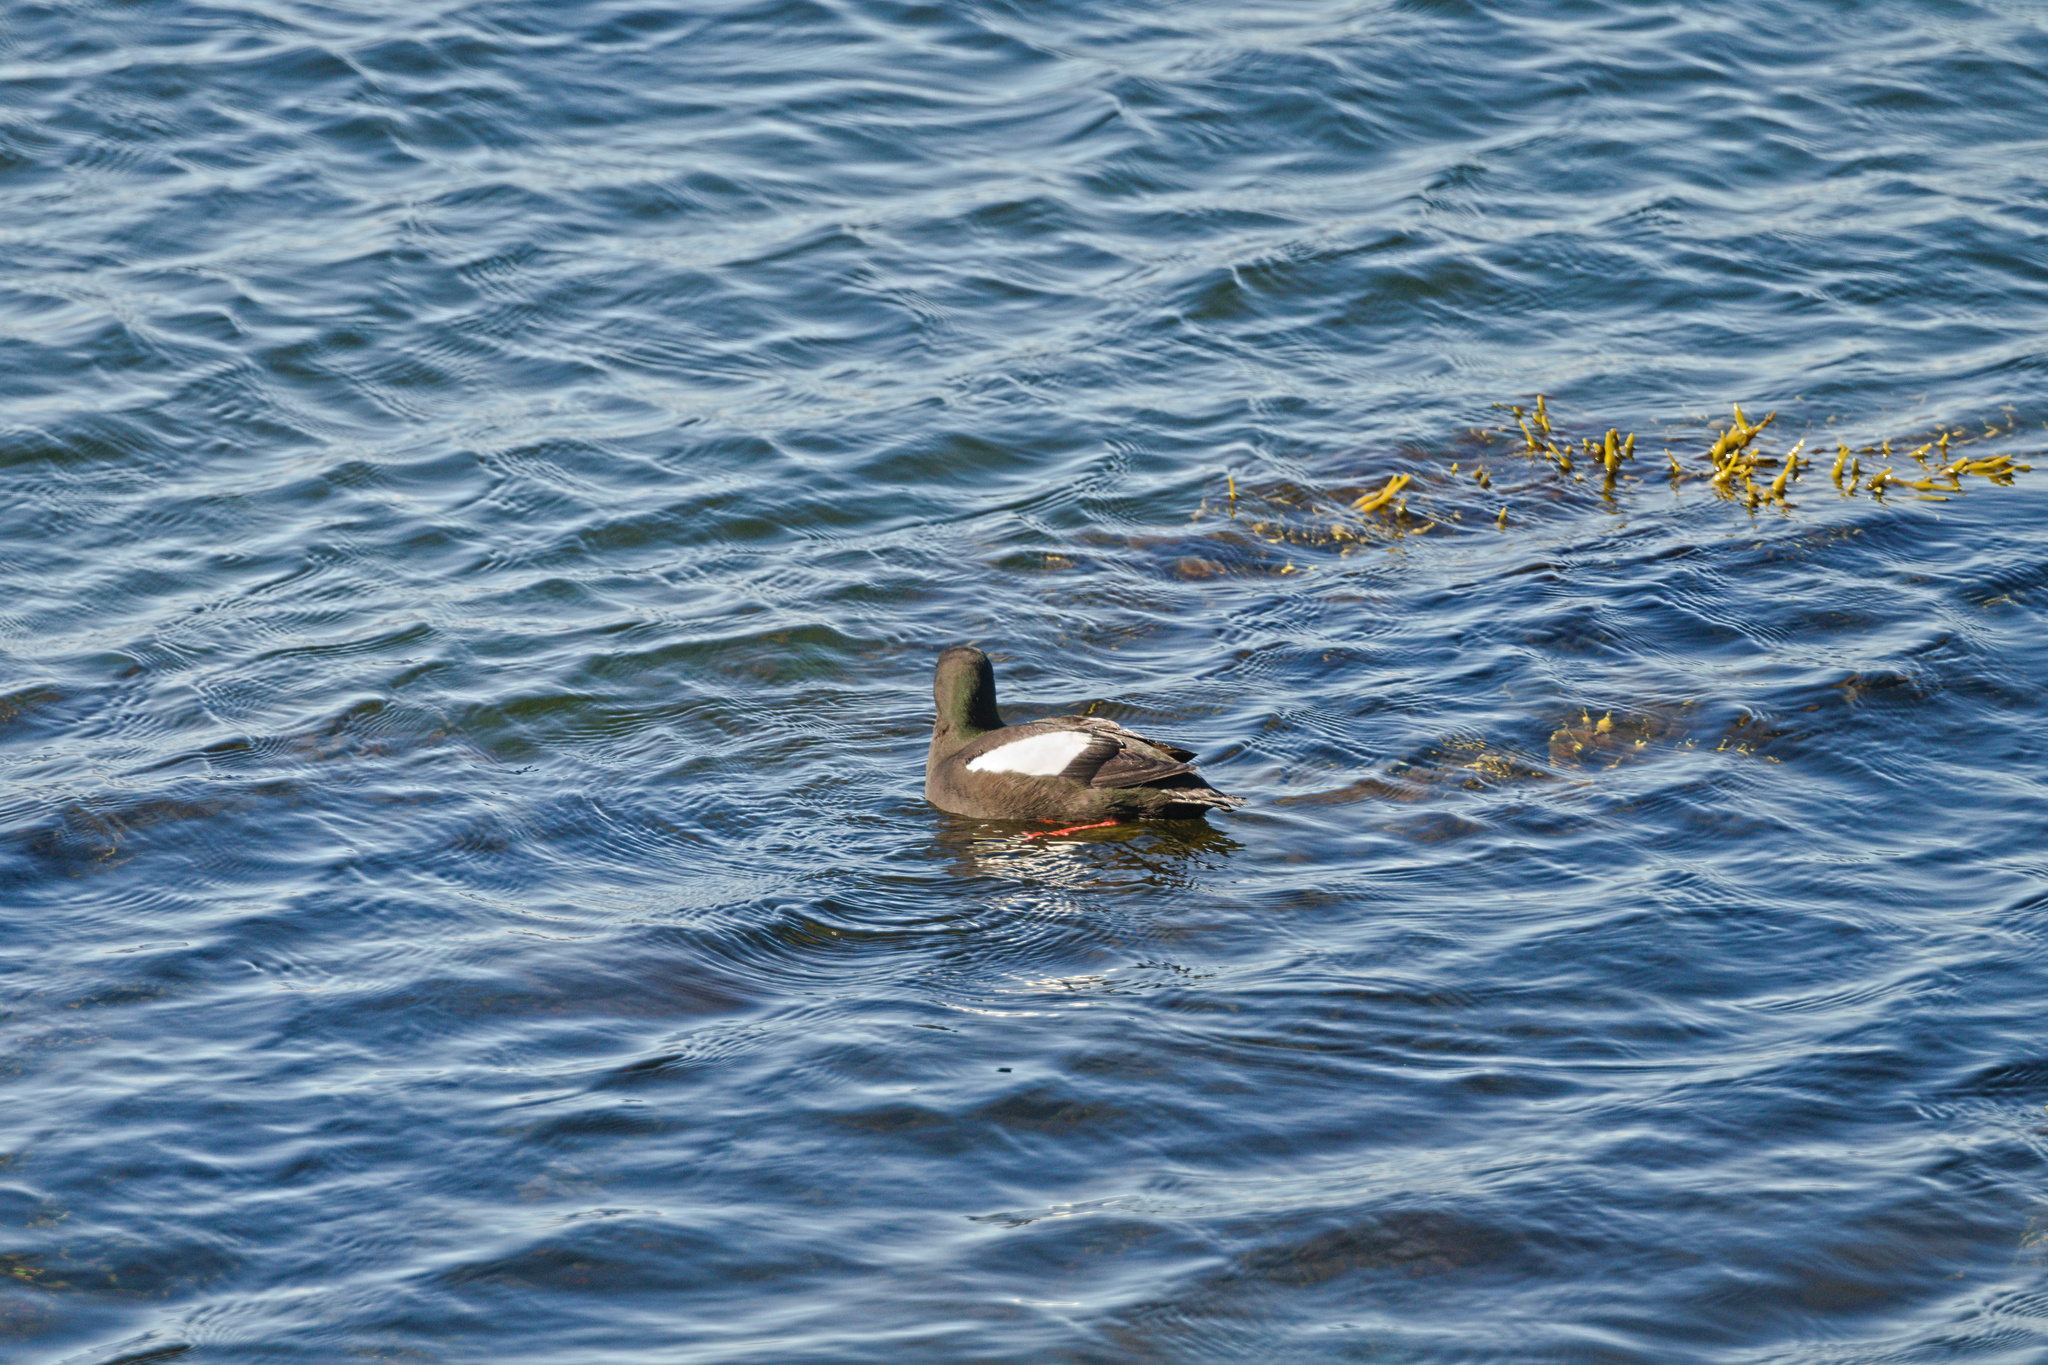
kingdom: Animalia
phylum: Chordata
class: Aves
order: Charadriiformes
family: Alcidae
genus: Cepphus
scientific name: Cepphus grylle
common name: Black guillemot
